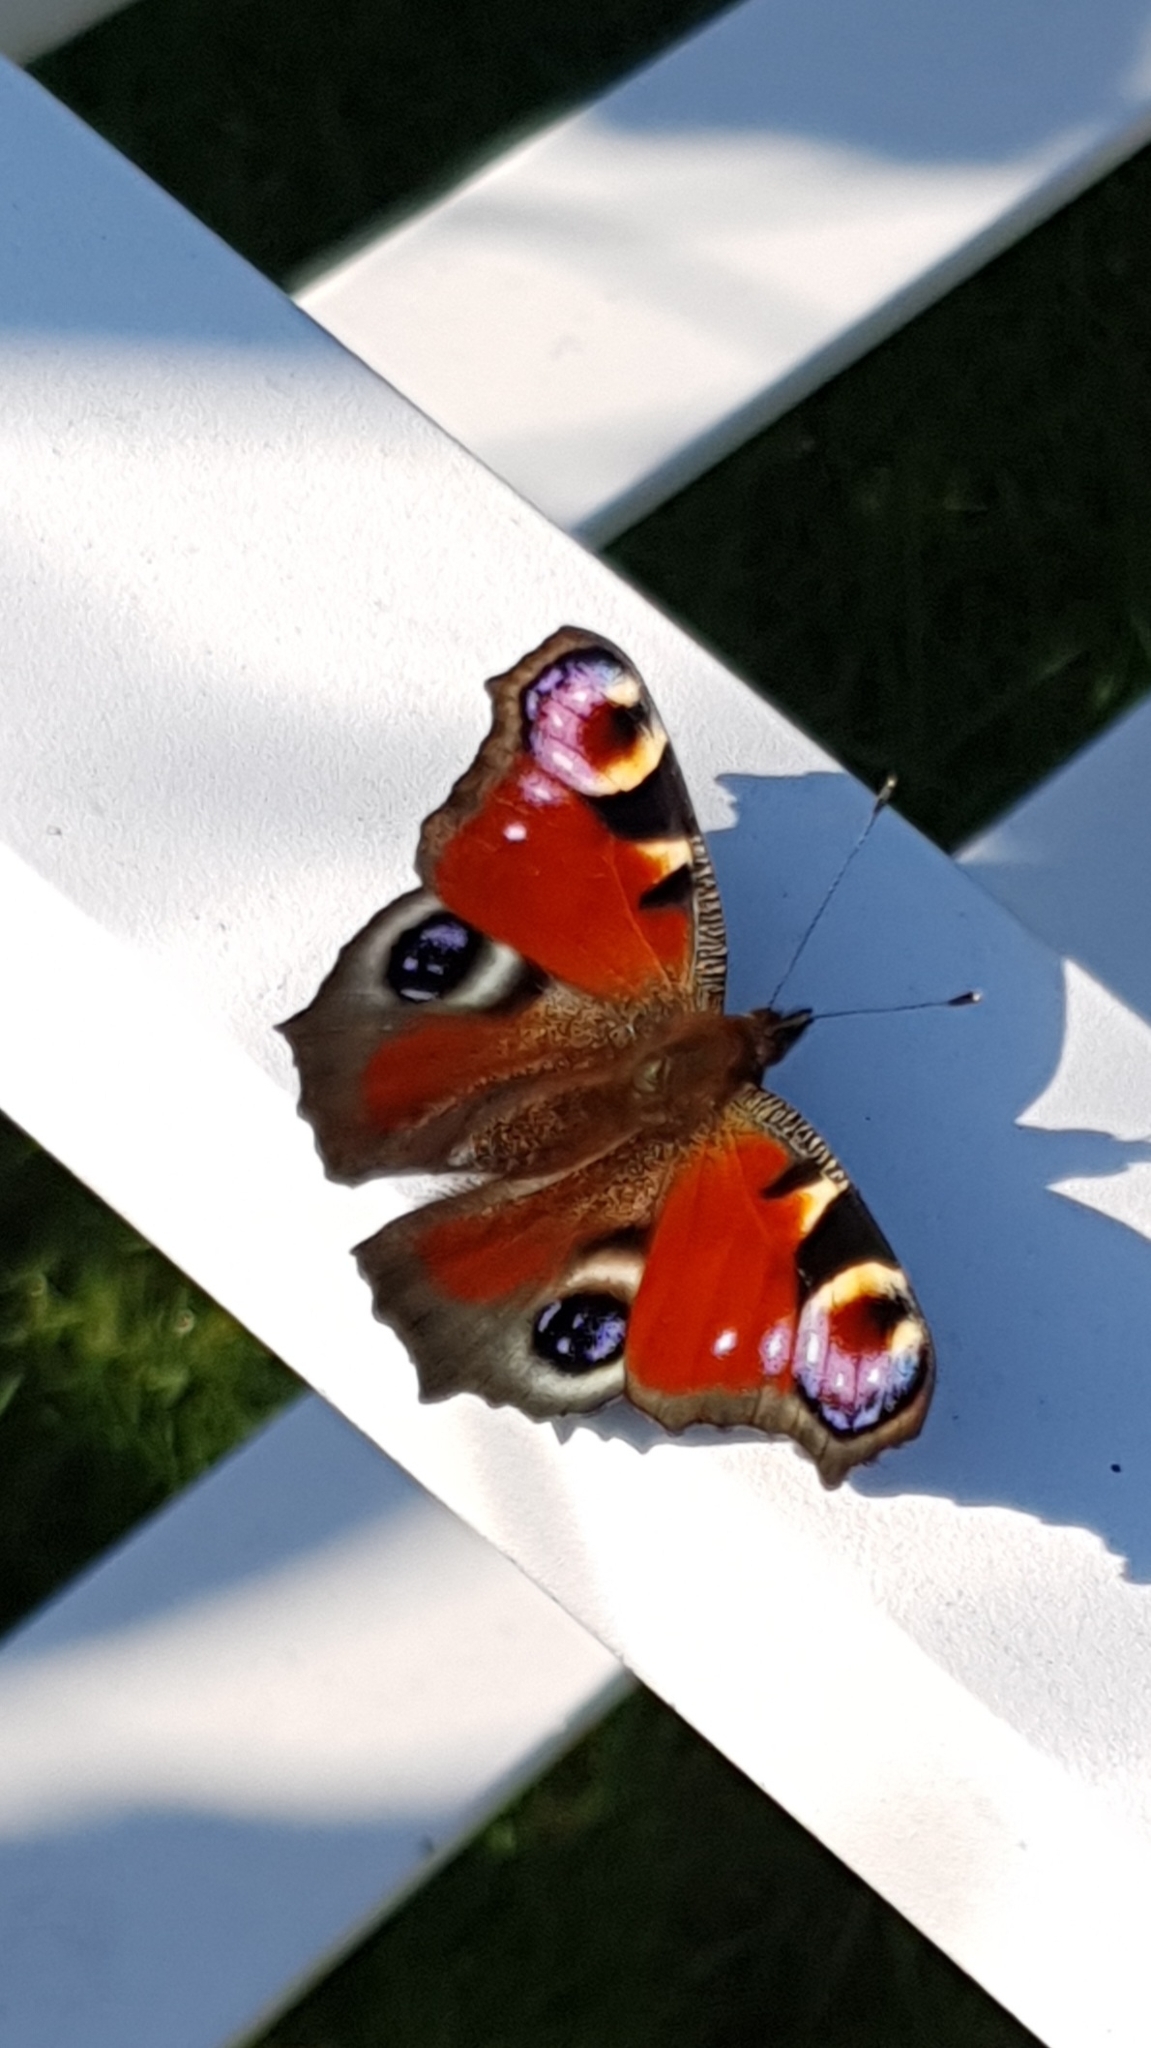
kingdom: Animalia
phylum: Arthropoda
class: Insecta
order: Lepidoptera
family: Nymphalidae
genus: Aglais
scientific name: Aglais io
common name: Peacock
